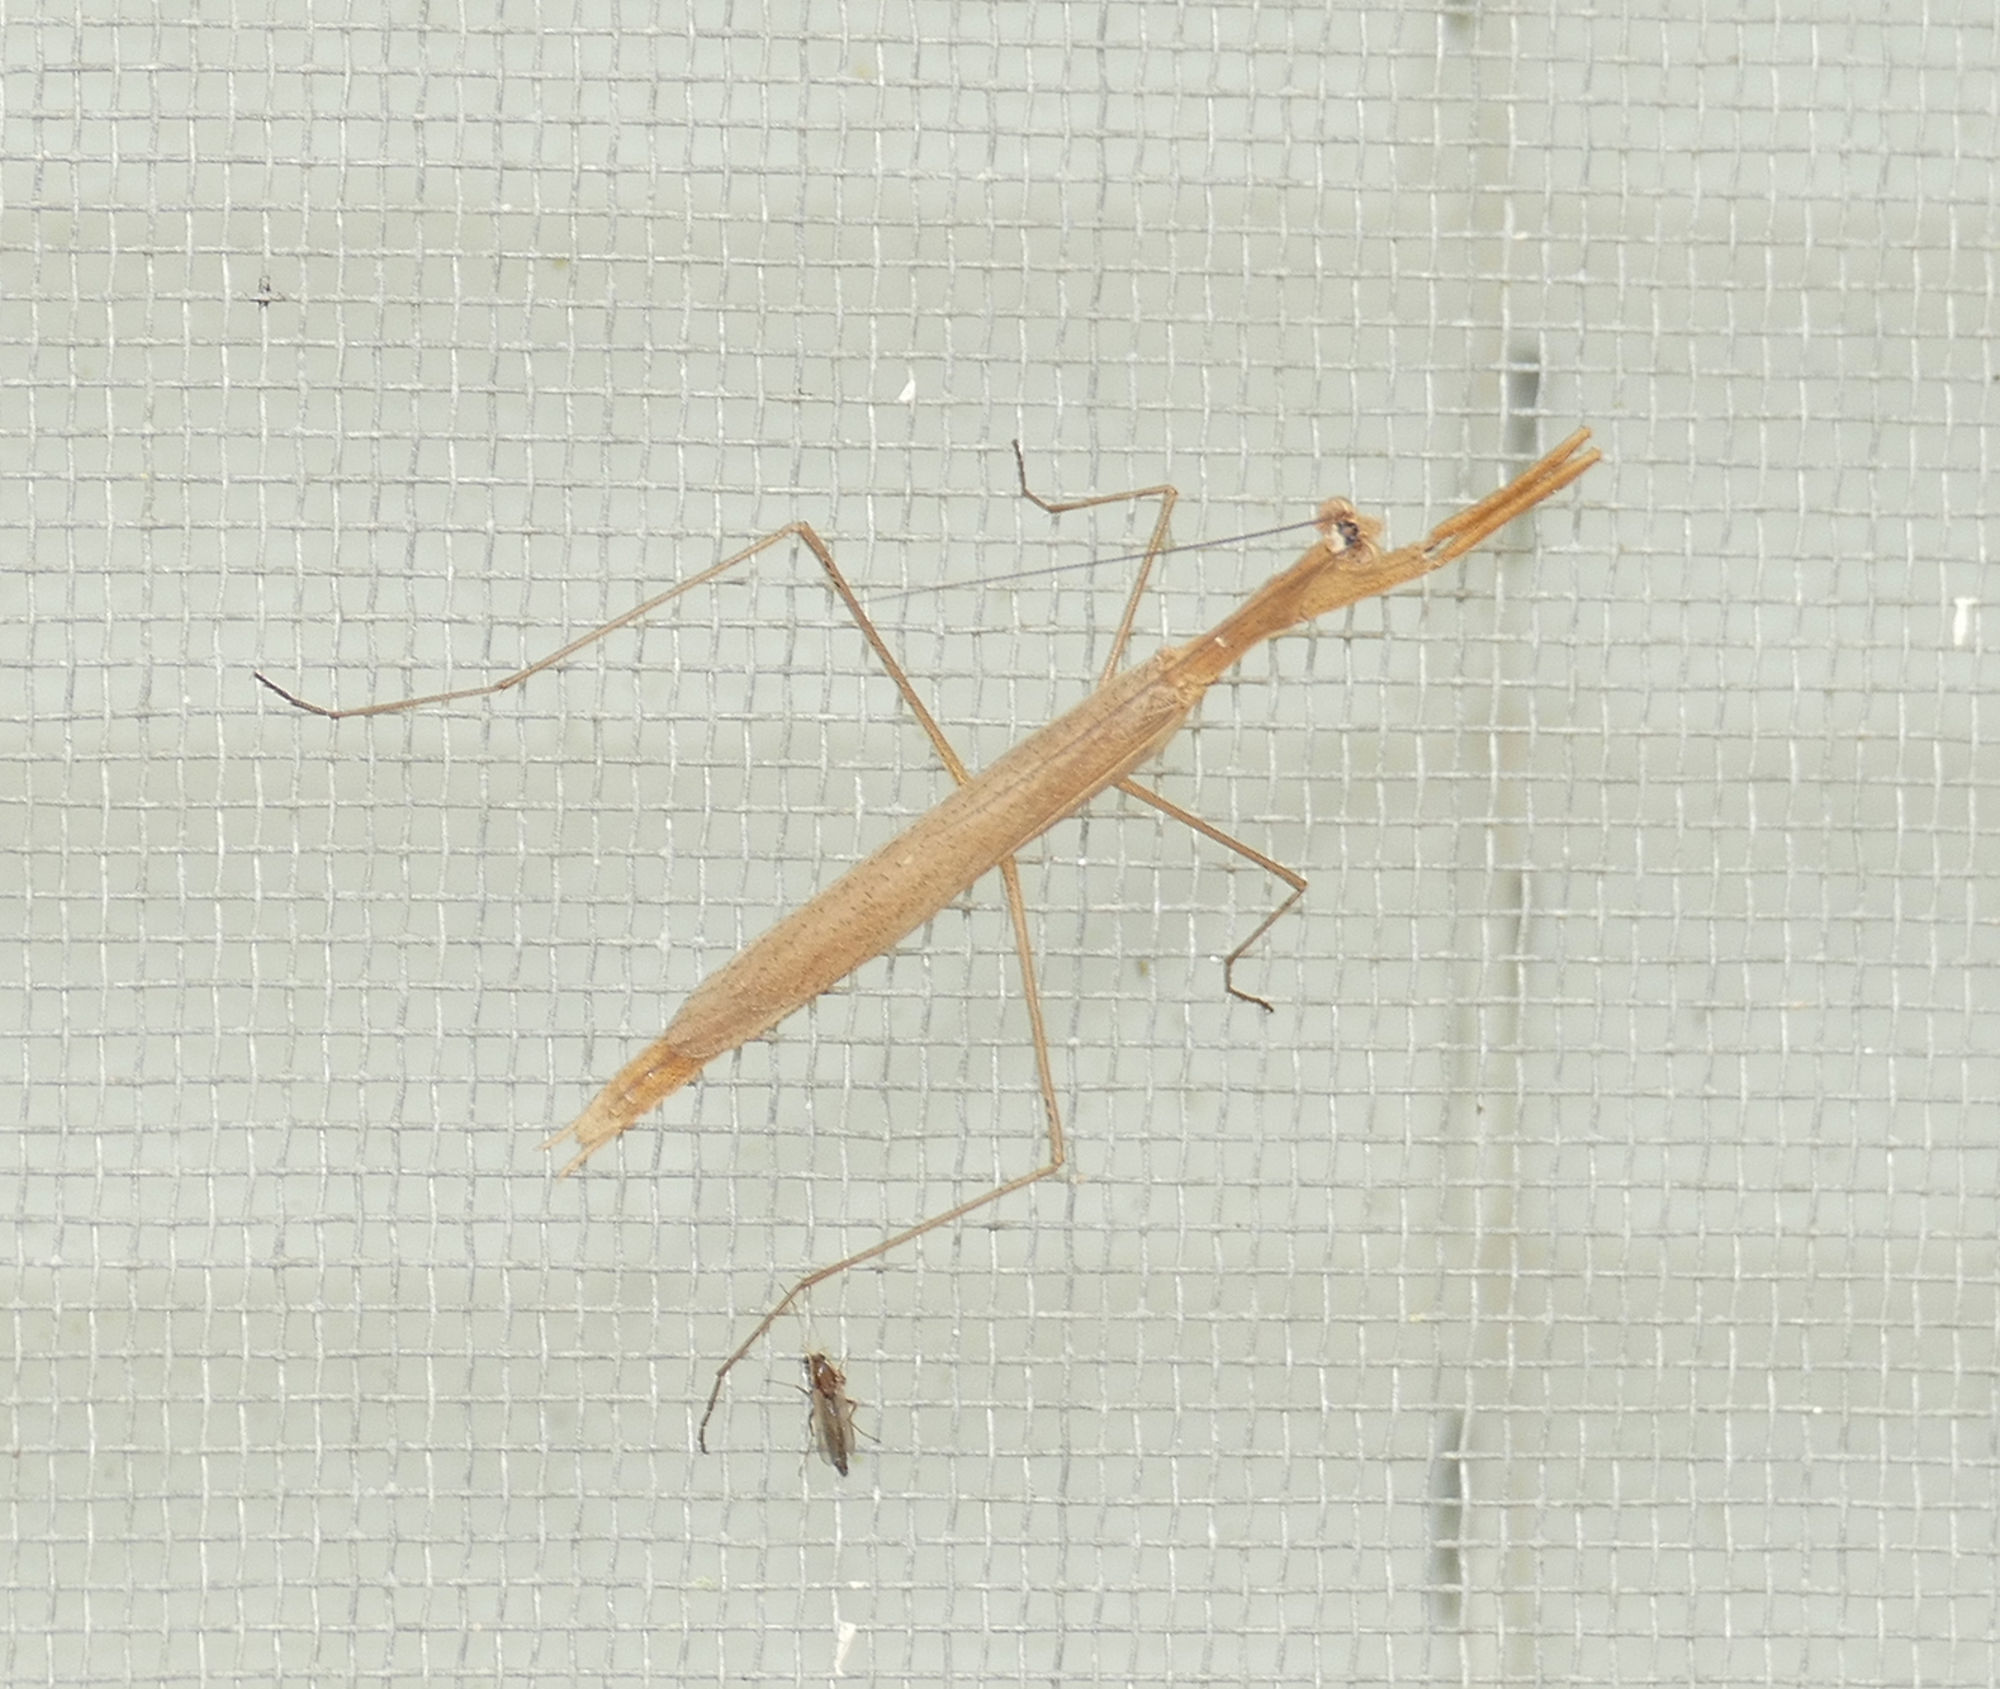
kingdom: Animalia
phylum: Arthropoda
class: Insecta
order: Mantodea
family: Thespidae
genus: Oligonicella
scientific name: Oligonicella scudderi
